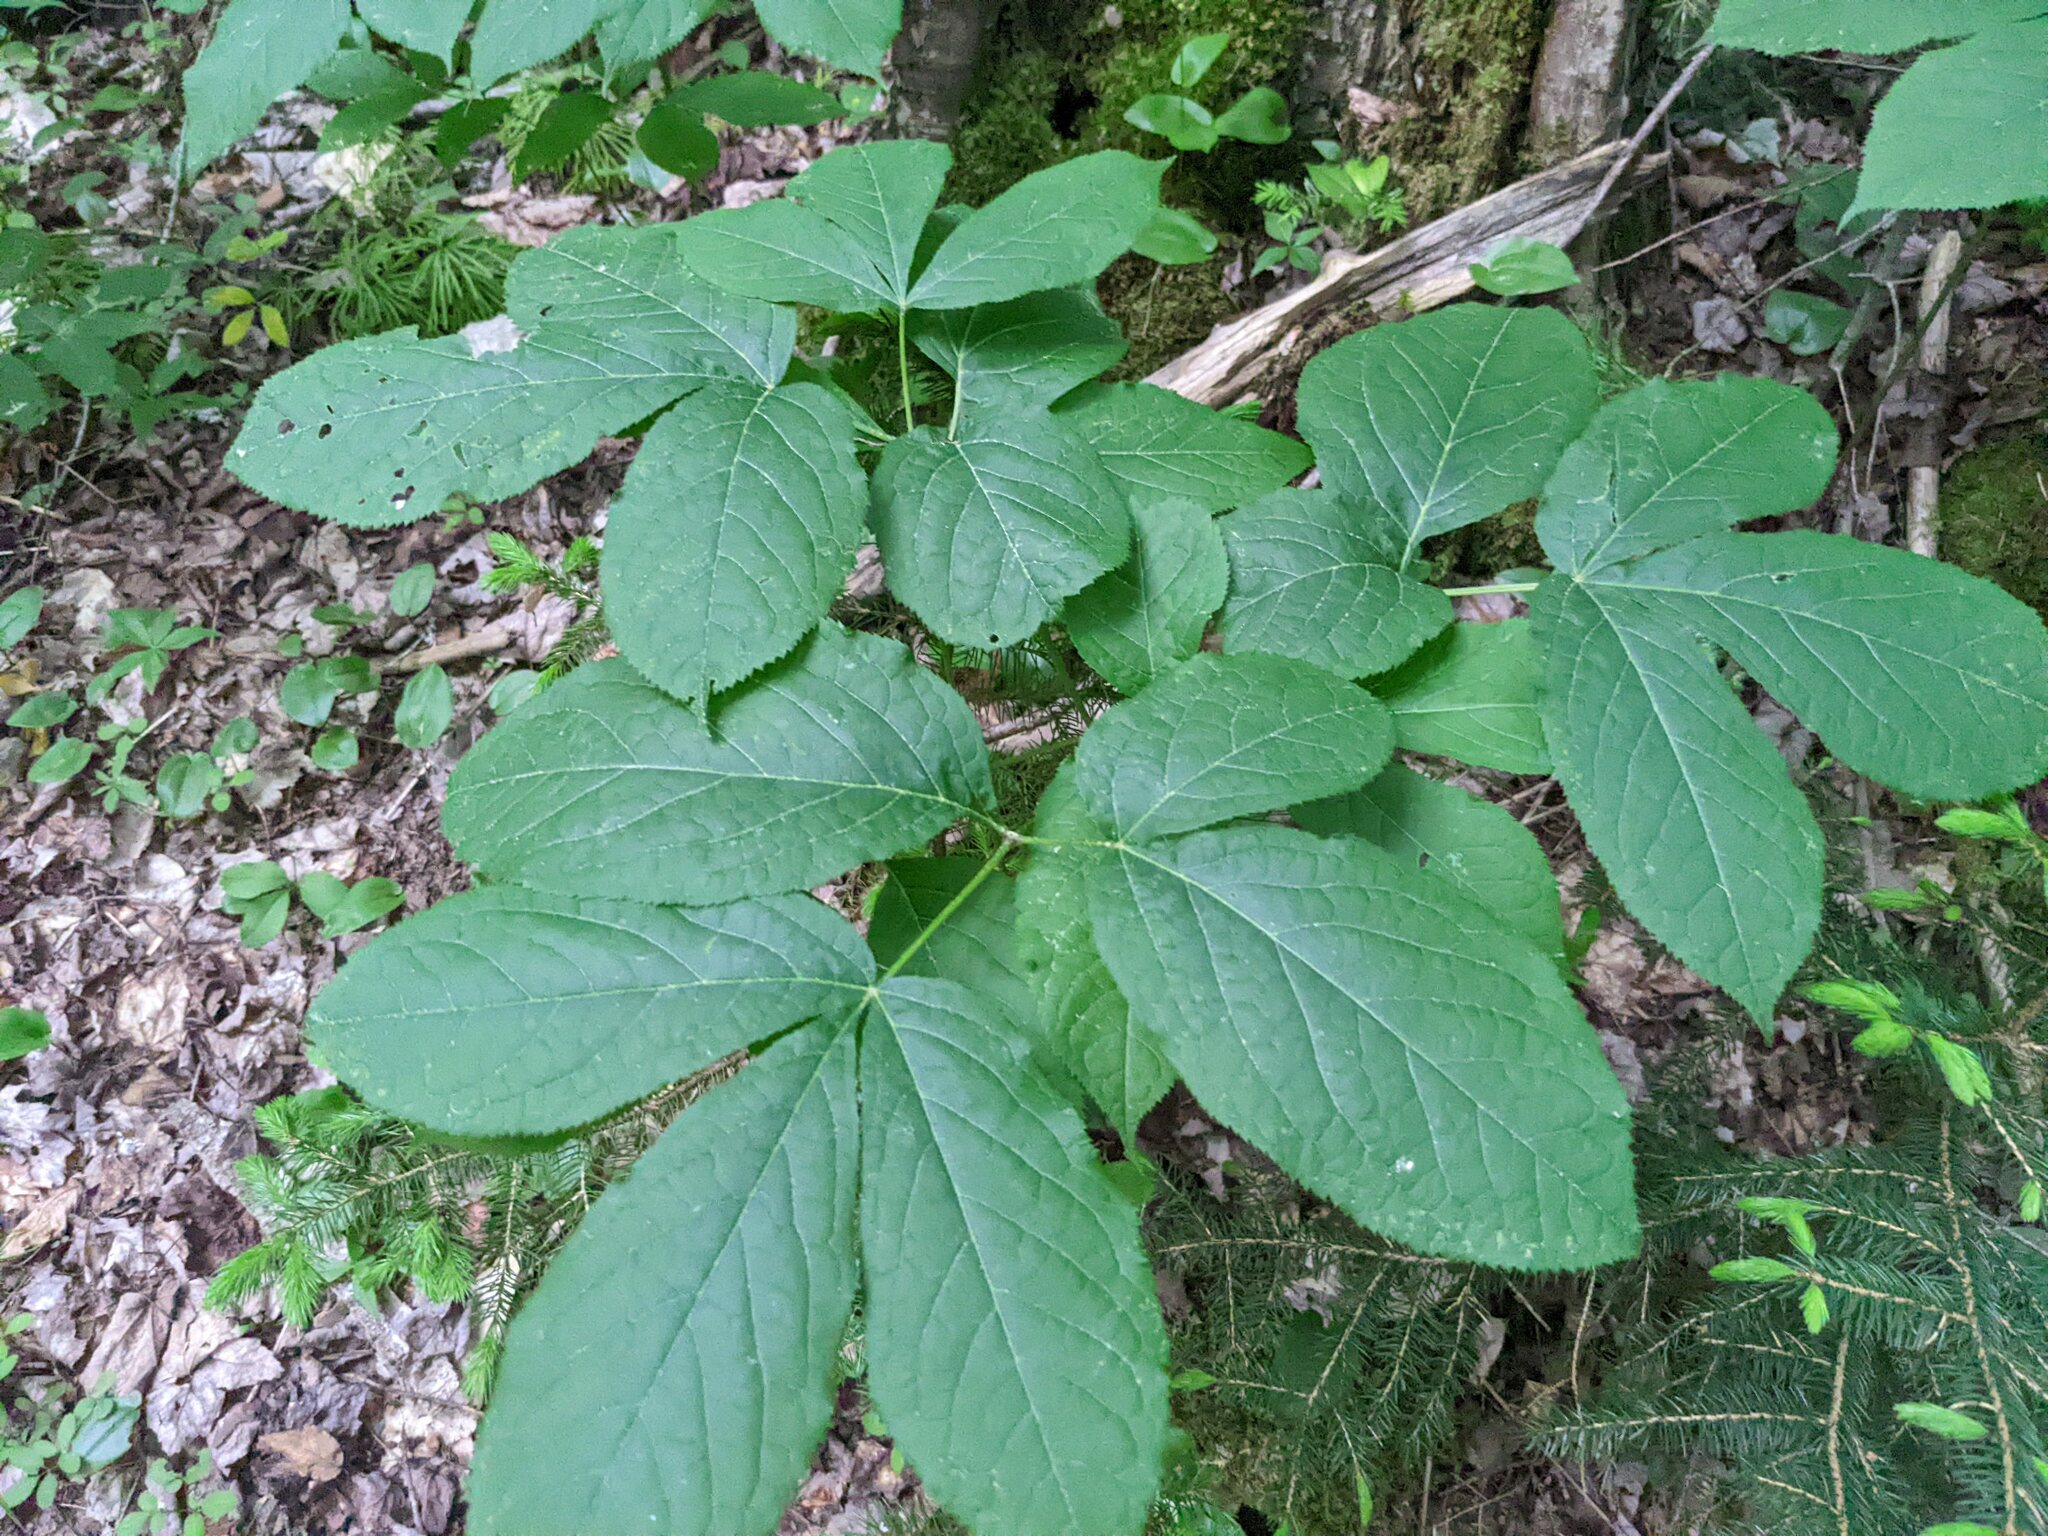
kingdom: Plantae
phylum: Tracheophyta
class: Magnoliopsida
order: Apiales
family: Araliaceae
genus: Aralia
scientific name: Aralia nudicaulis
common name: Wild sarsaparilla
